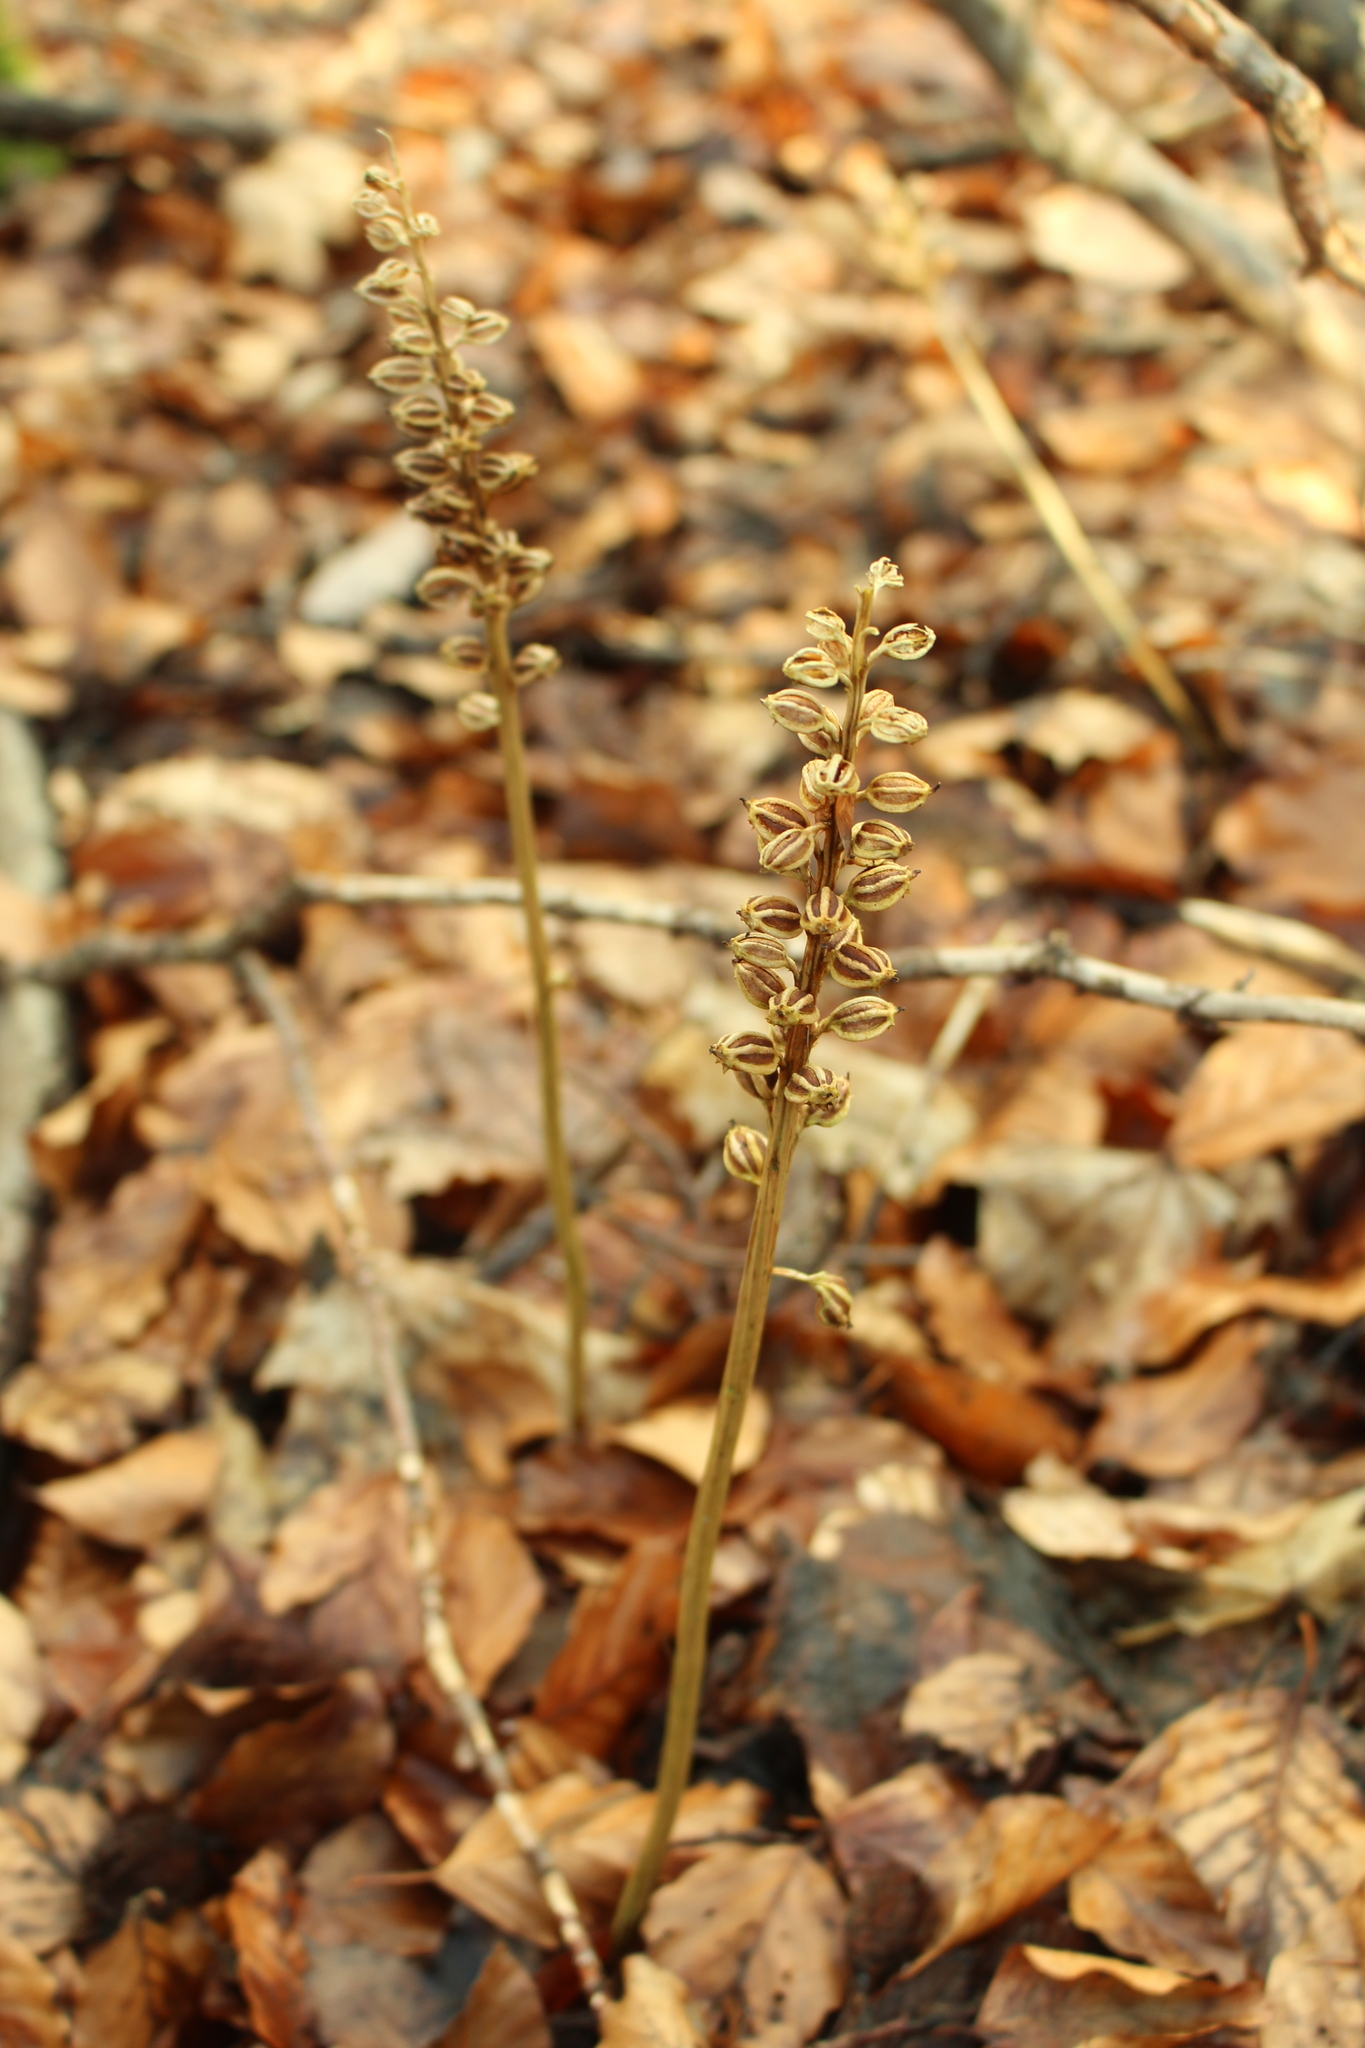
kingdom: Plantae
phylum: Tracheophyta
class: Liliopsida
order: Asparagales
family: Orchidaceae
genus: Neottia
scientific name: Neottia nidus-avis
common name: Bird's-nest orchid
